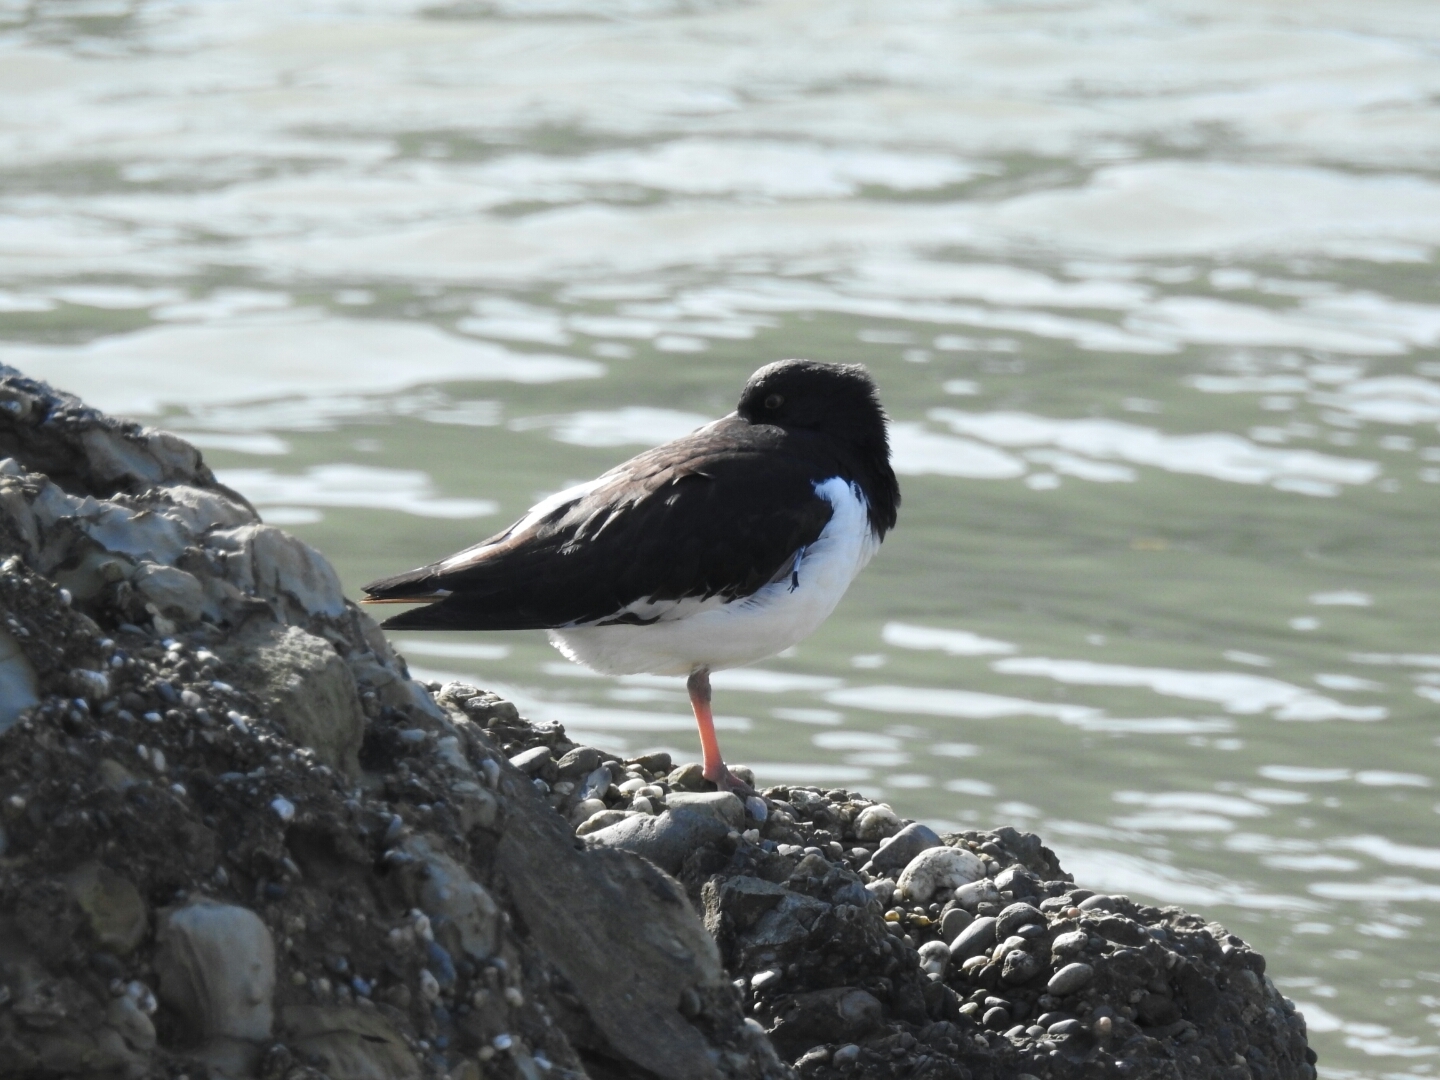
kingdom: Animalia
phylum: Chordata
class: Aves
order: Charadriiformes
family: Haematopodidae
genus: Haematopus
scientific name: Haematopus finschi
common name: South island oystercatcher
